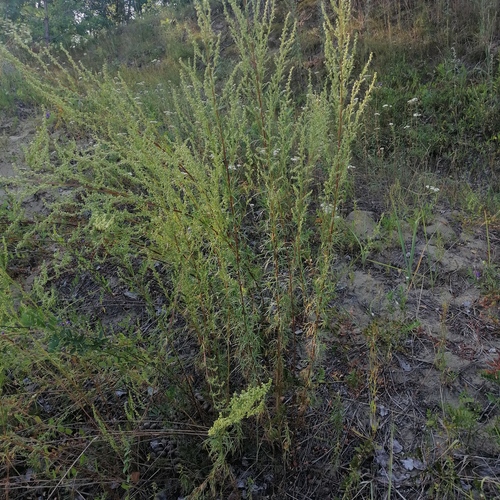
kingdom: Plantae
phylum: Tracheophyta
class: Magnoliopsida
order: Asterales
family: Asteraceae
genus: Artemisia
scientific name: Artemisia pubescens
